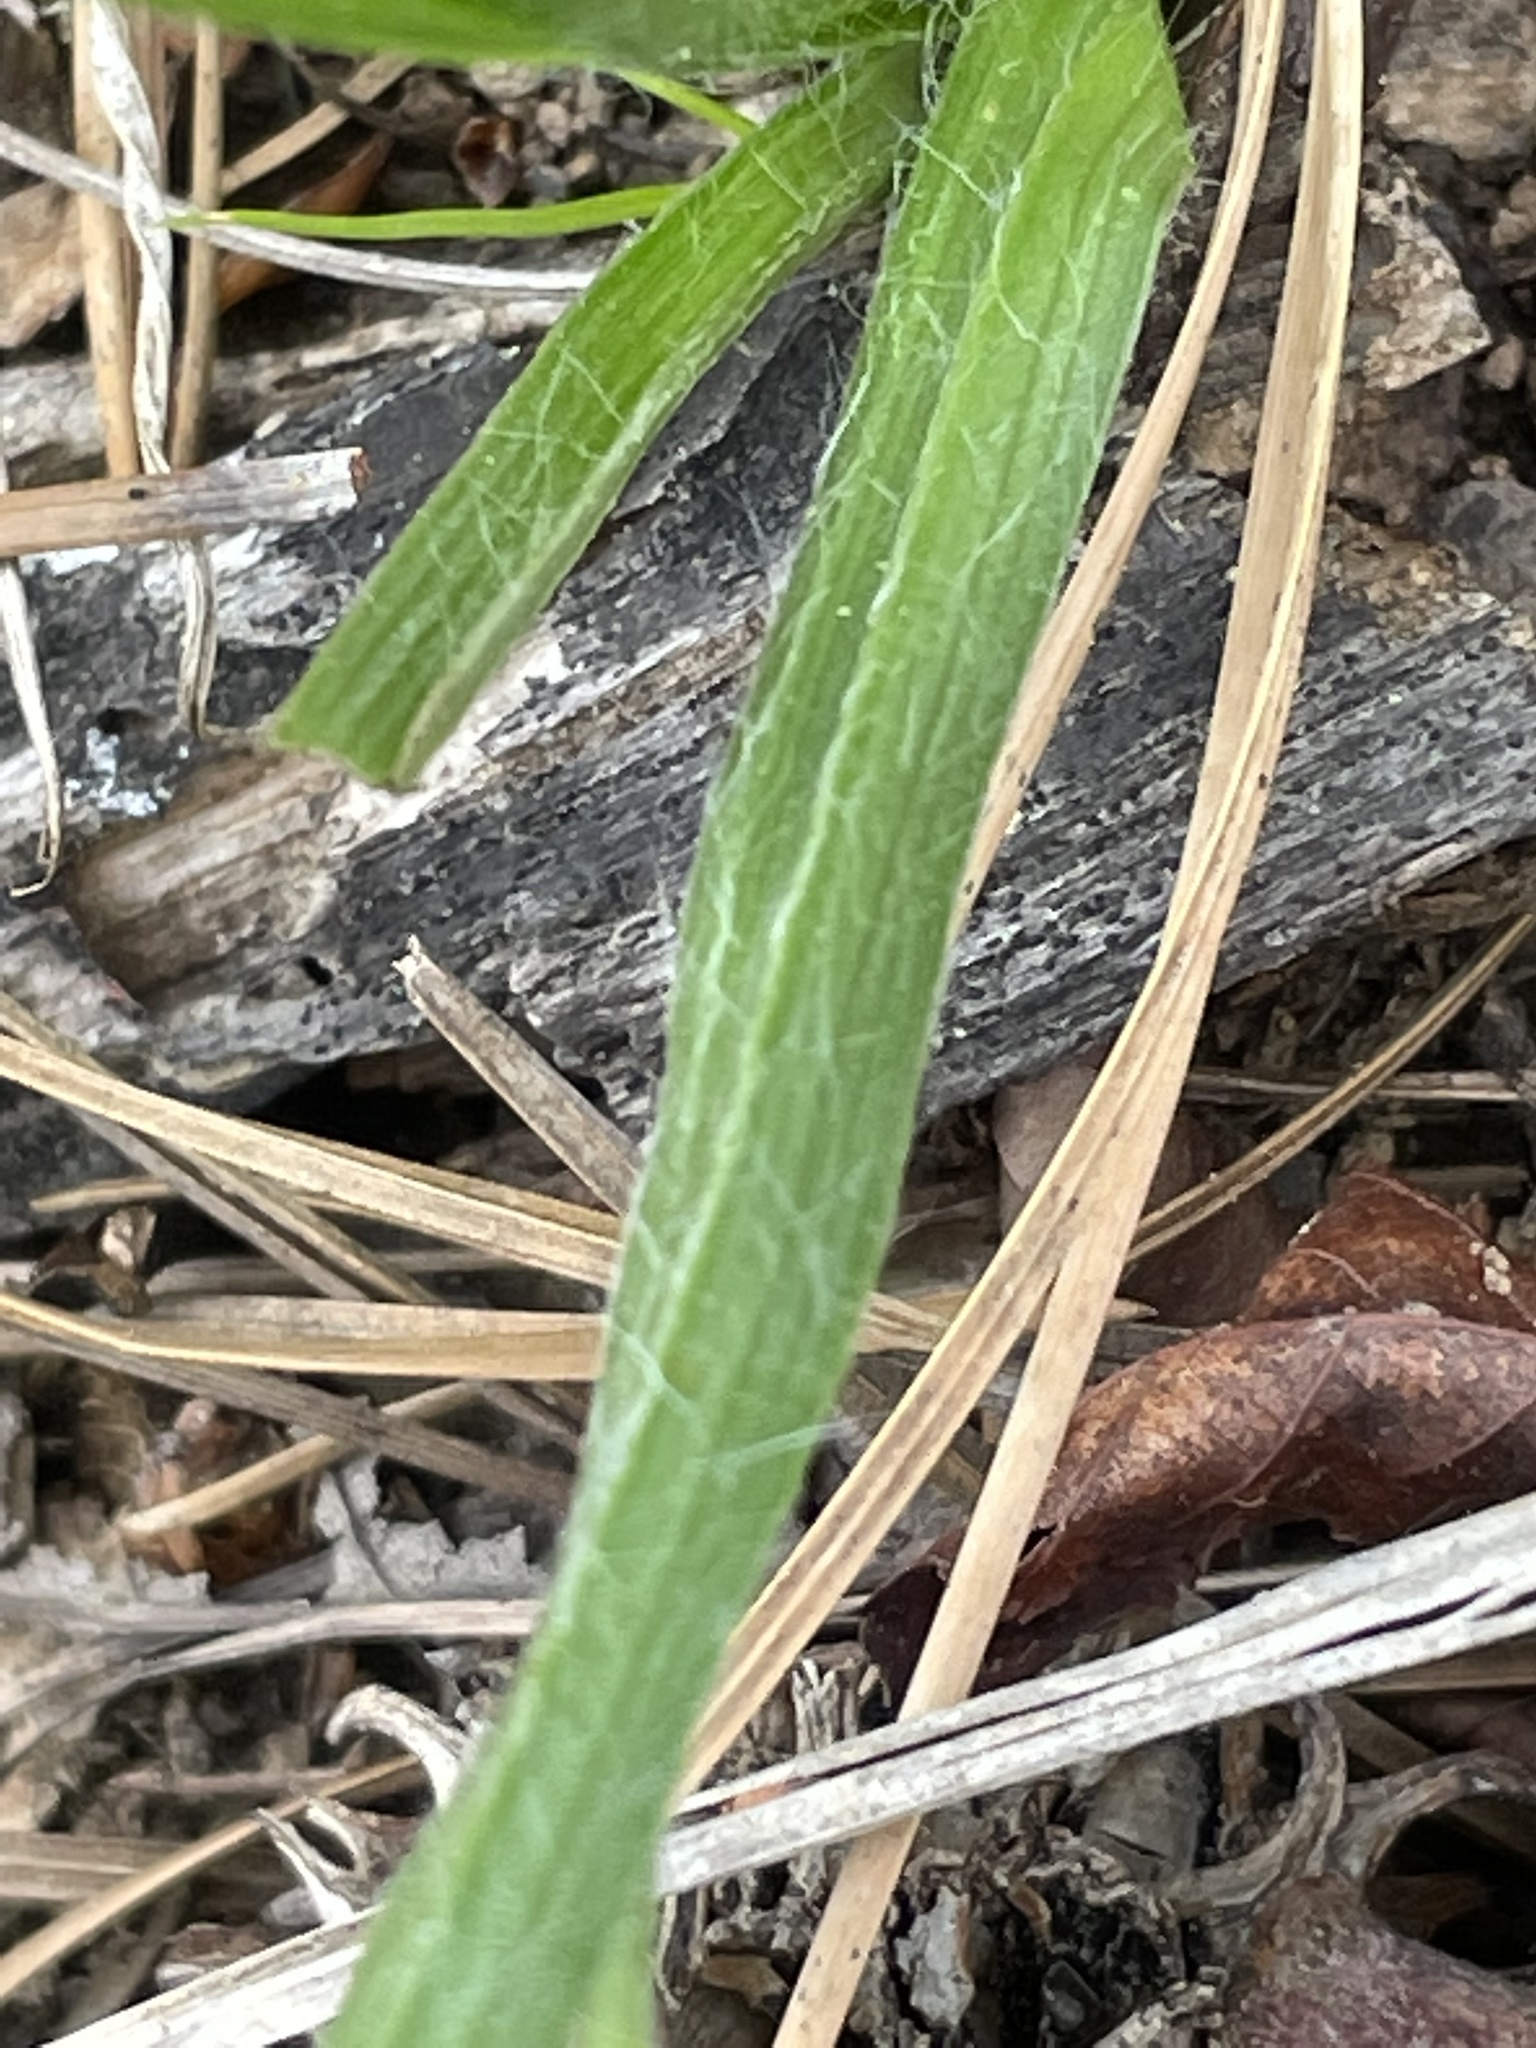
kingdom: Plantae
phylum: Tracheophyta
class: Liliopsida
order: Asparagales
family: Hypoxidaceae
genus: Hypoxis
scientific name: Hypoxis hirsuta
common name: Common goldstar
